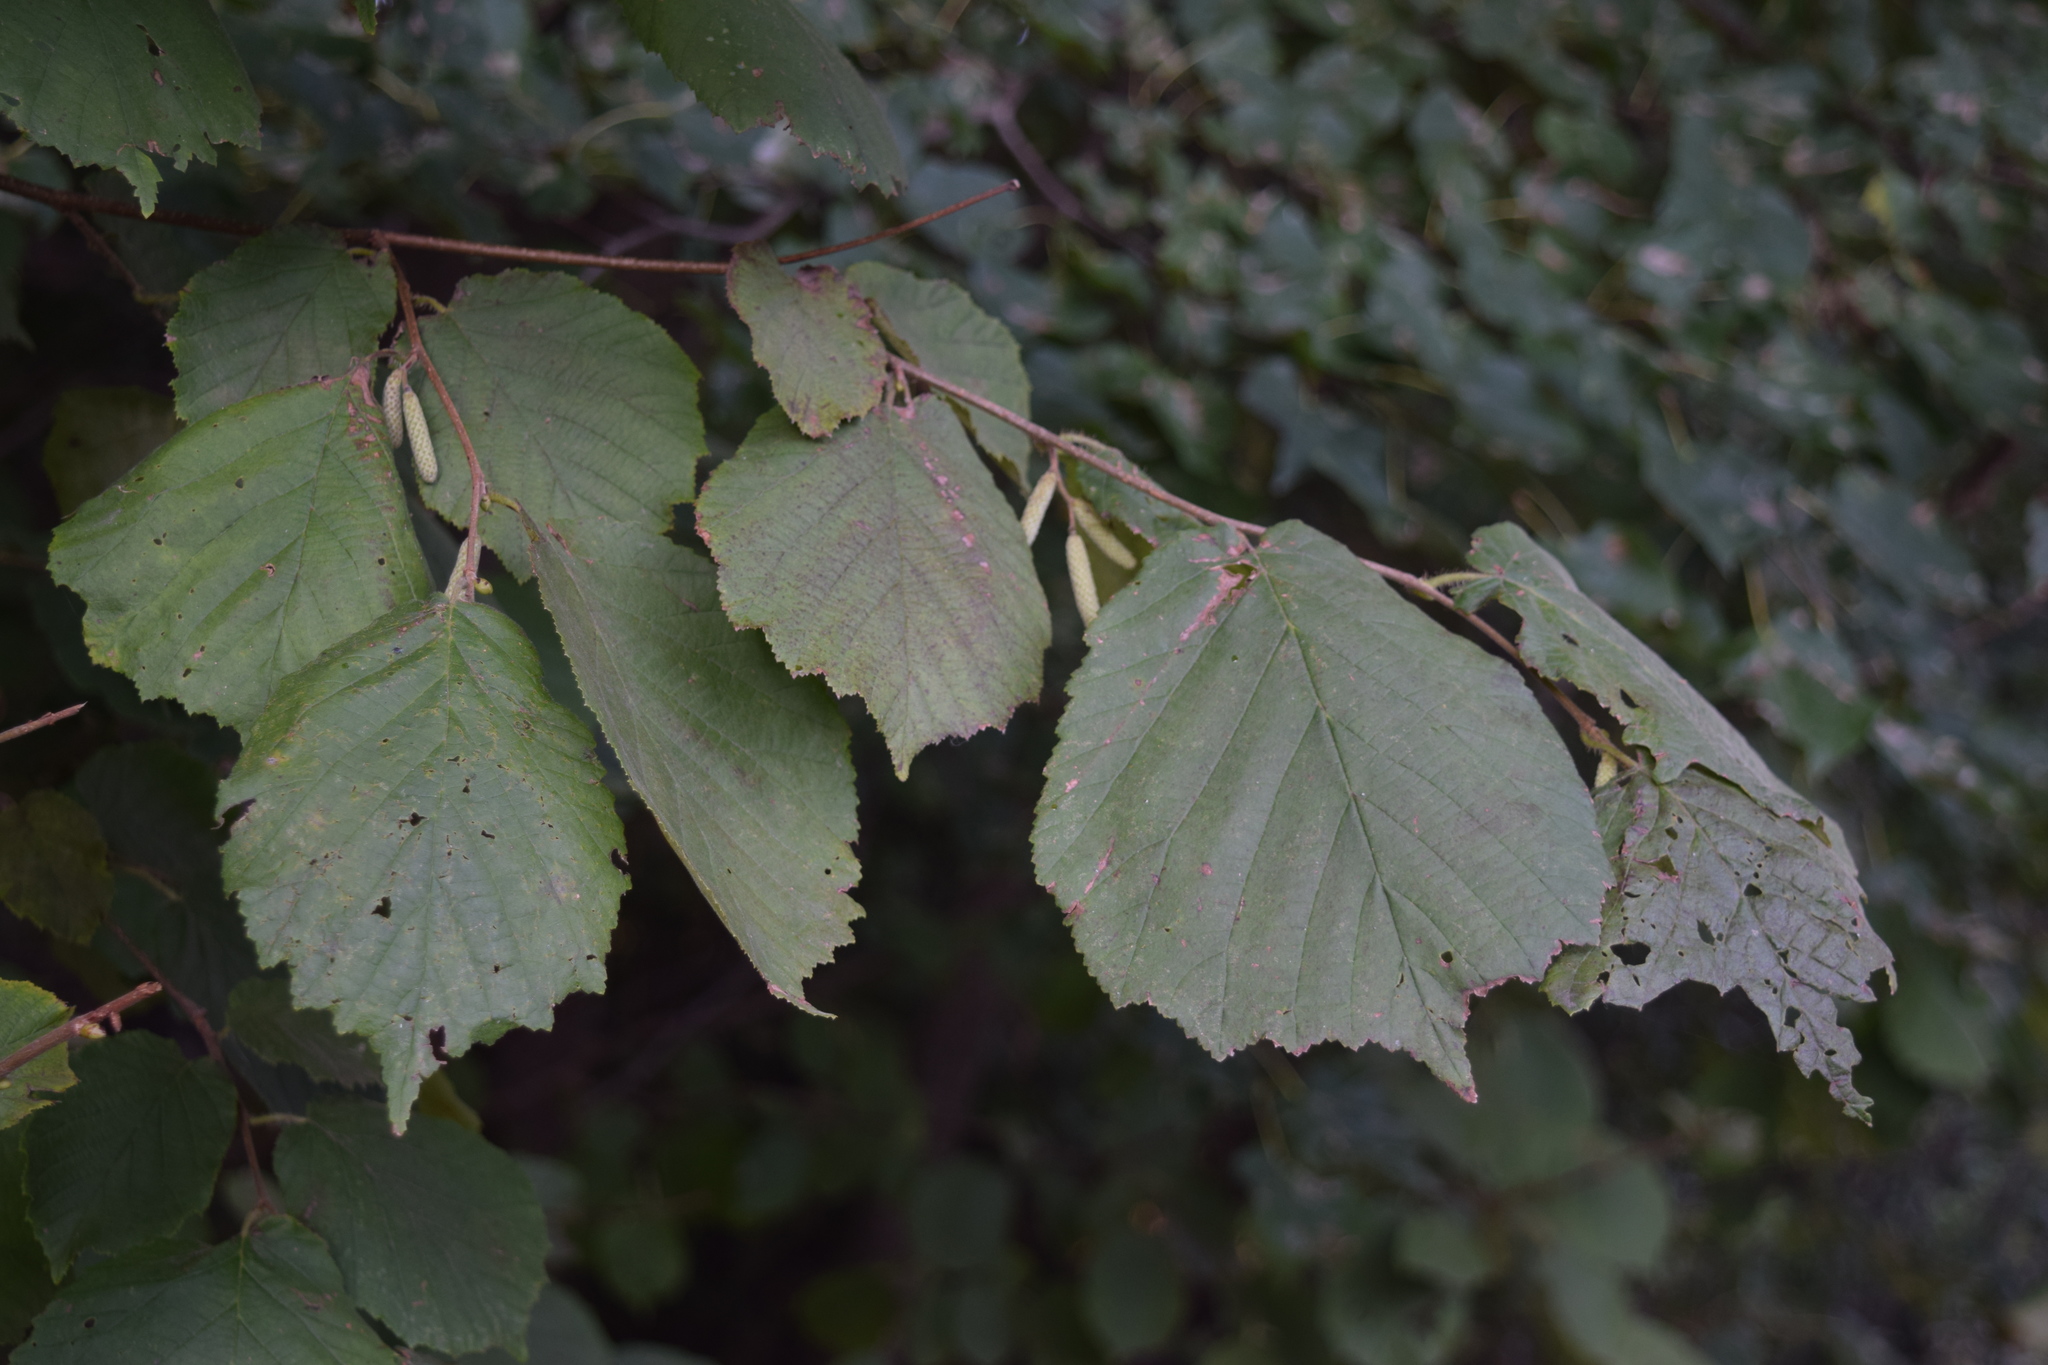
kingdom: Plantae
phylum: Tracheophyta
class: Magnoliopsida
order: Fagales
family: Betulaceae
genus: Corylus
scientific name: Corylus avellana
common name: European hazel
